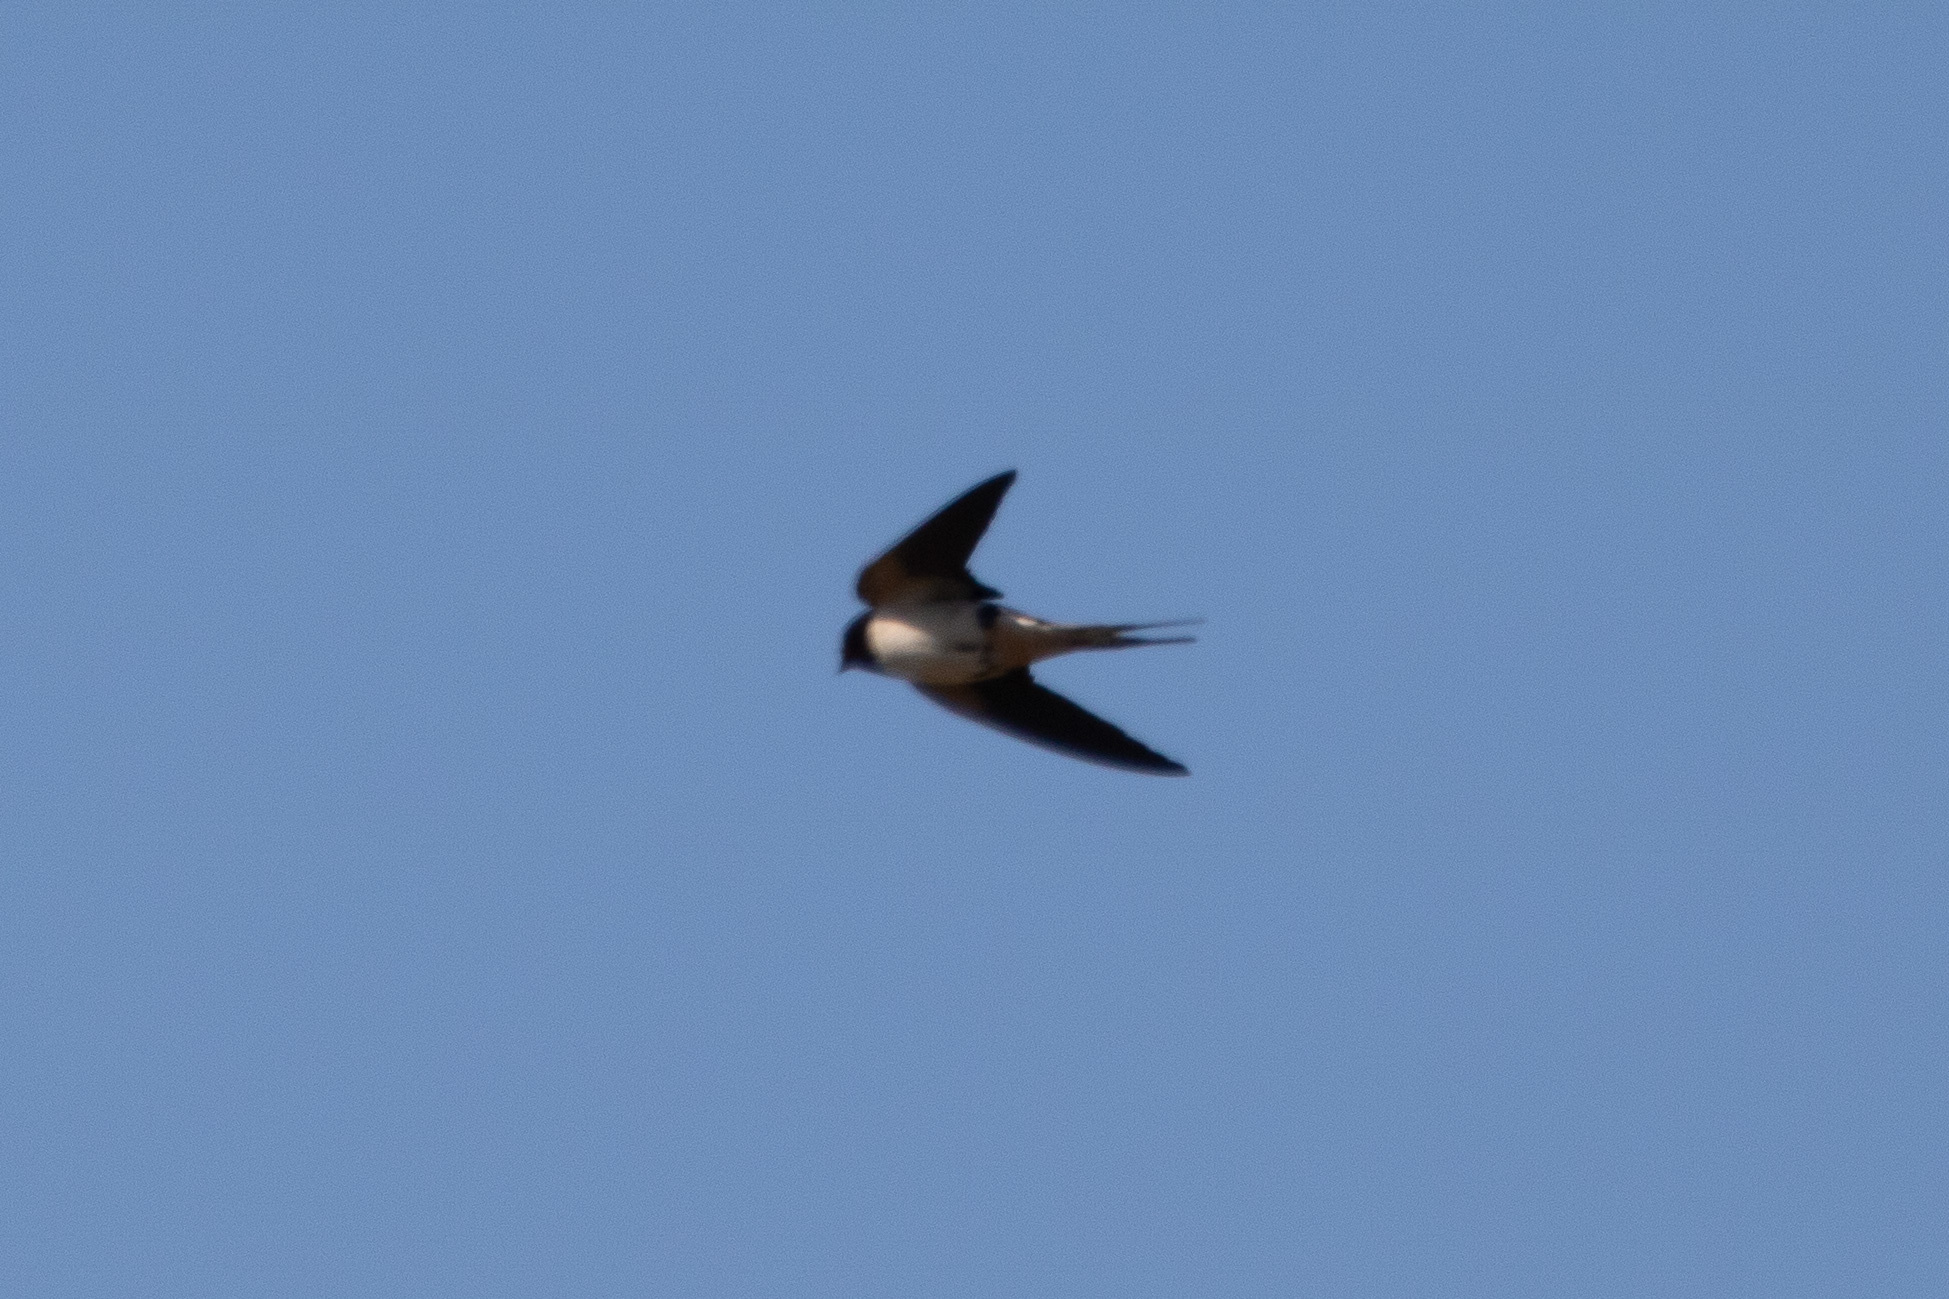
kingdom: Animalia
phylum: Chordata
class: Aves
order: Passeriformes
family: Hirundinidae
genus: Hirundo
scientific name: Hirundo rustica
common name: Barn swallow
